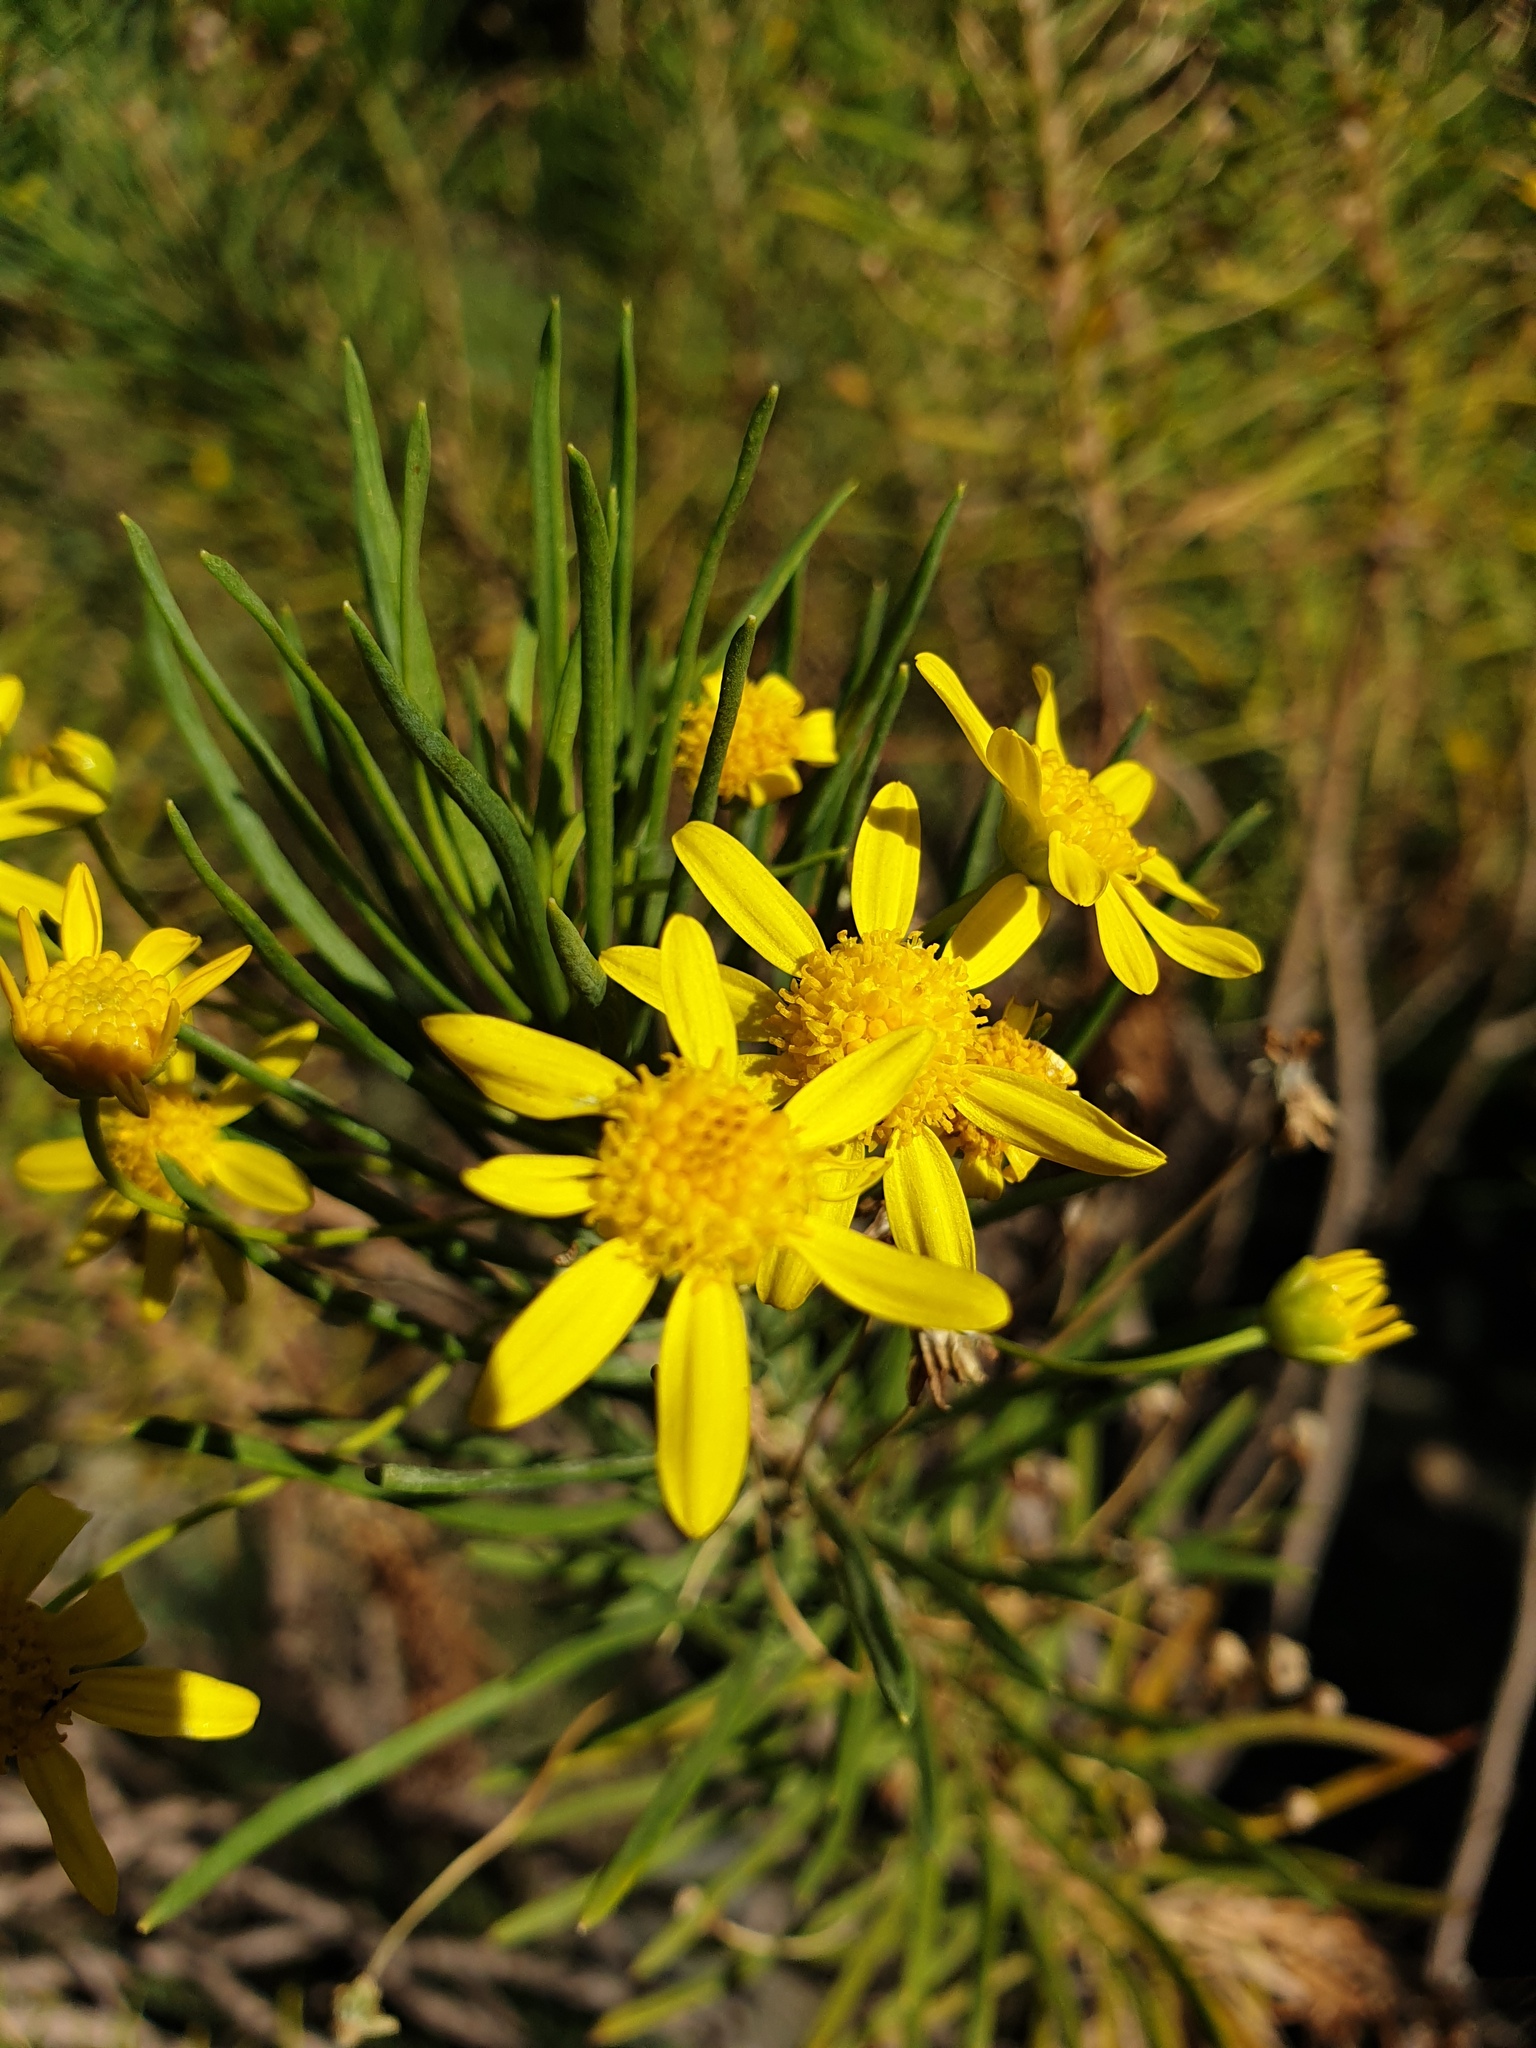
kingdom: Plantae
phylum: Tracheophyta
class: Magnoliopsida
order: Asterales
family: Asteraceae
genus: Euryops
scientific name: Euryops arabicus
